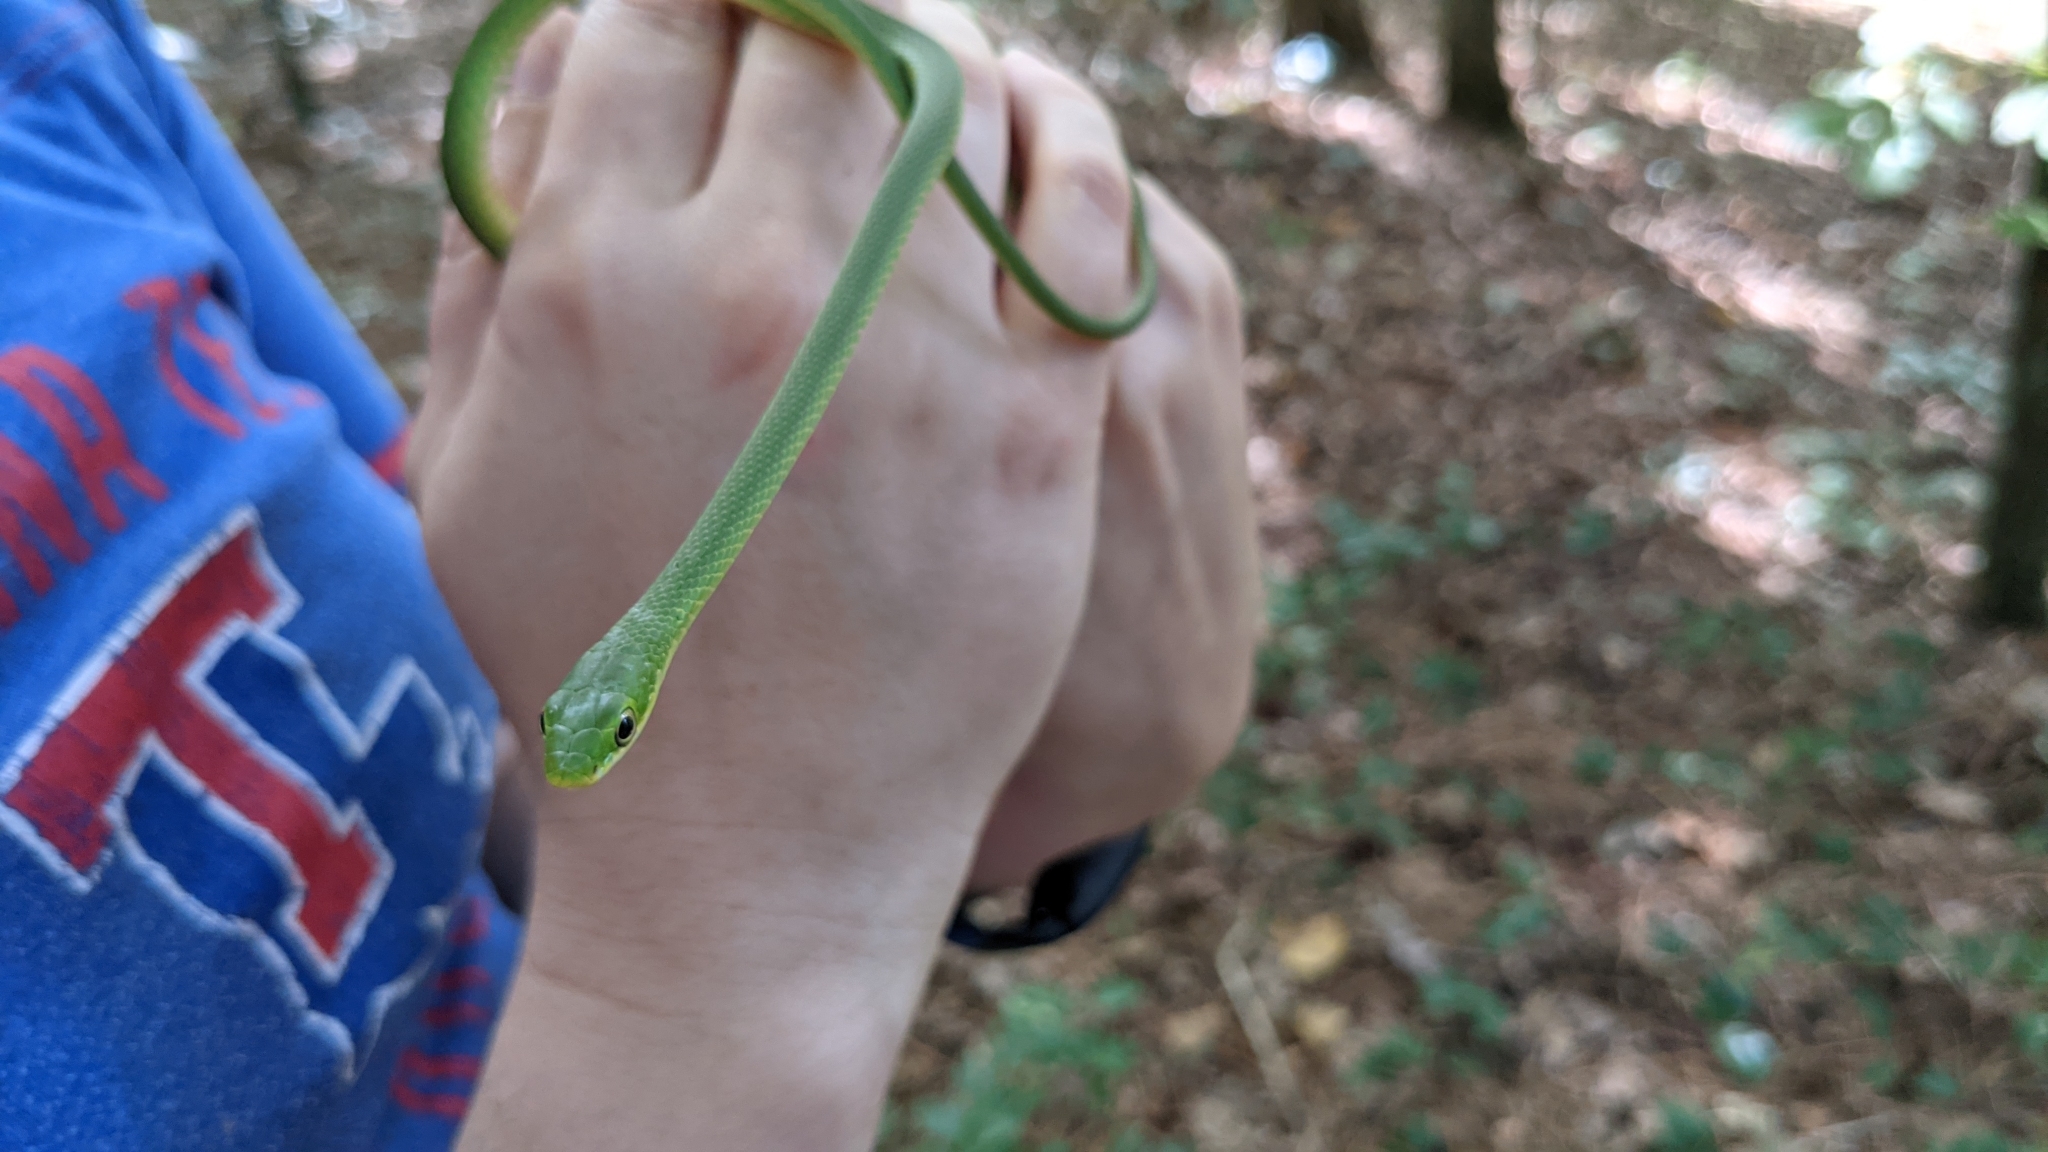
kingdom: Animalia
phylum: Chordata
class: Squamata
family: Colubridae
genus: Opheodrys
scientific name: Opheodrys aestivus
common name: Rough greensnake
